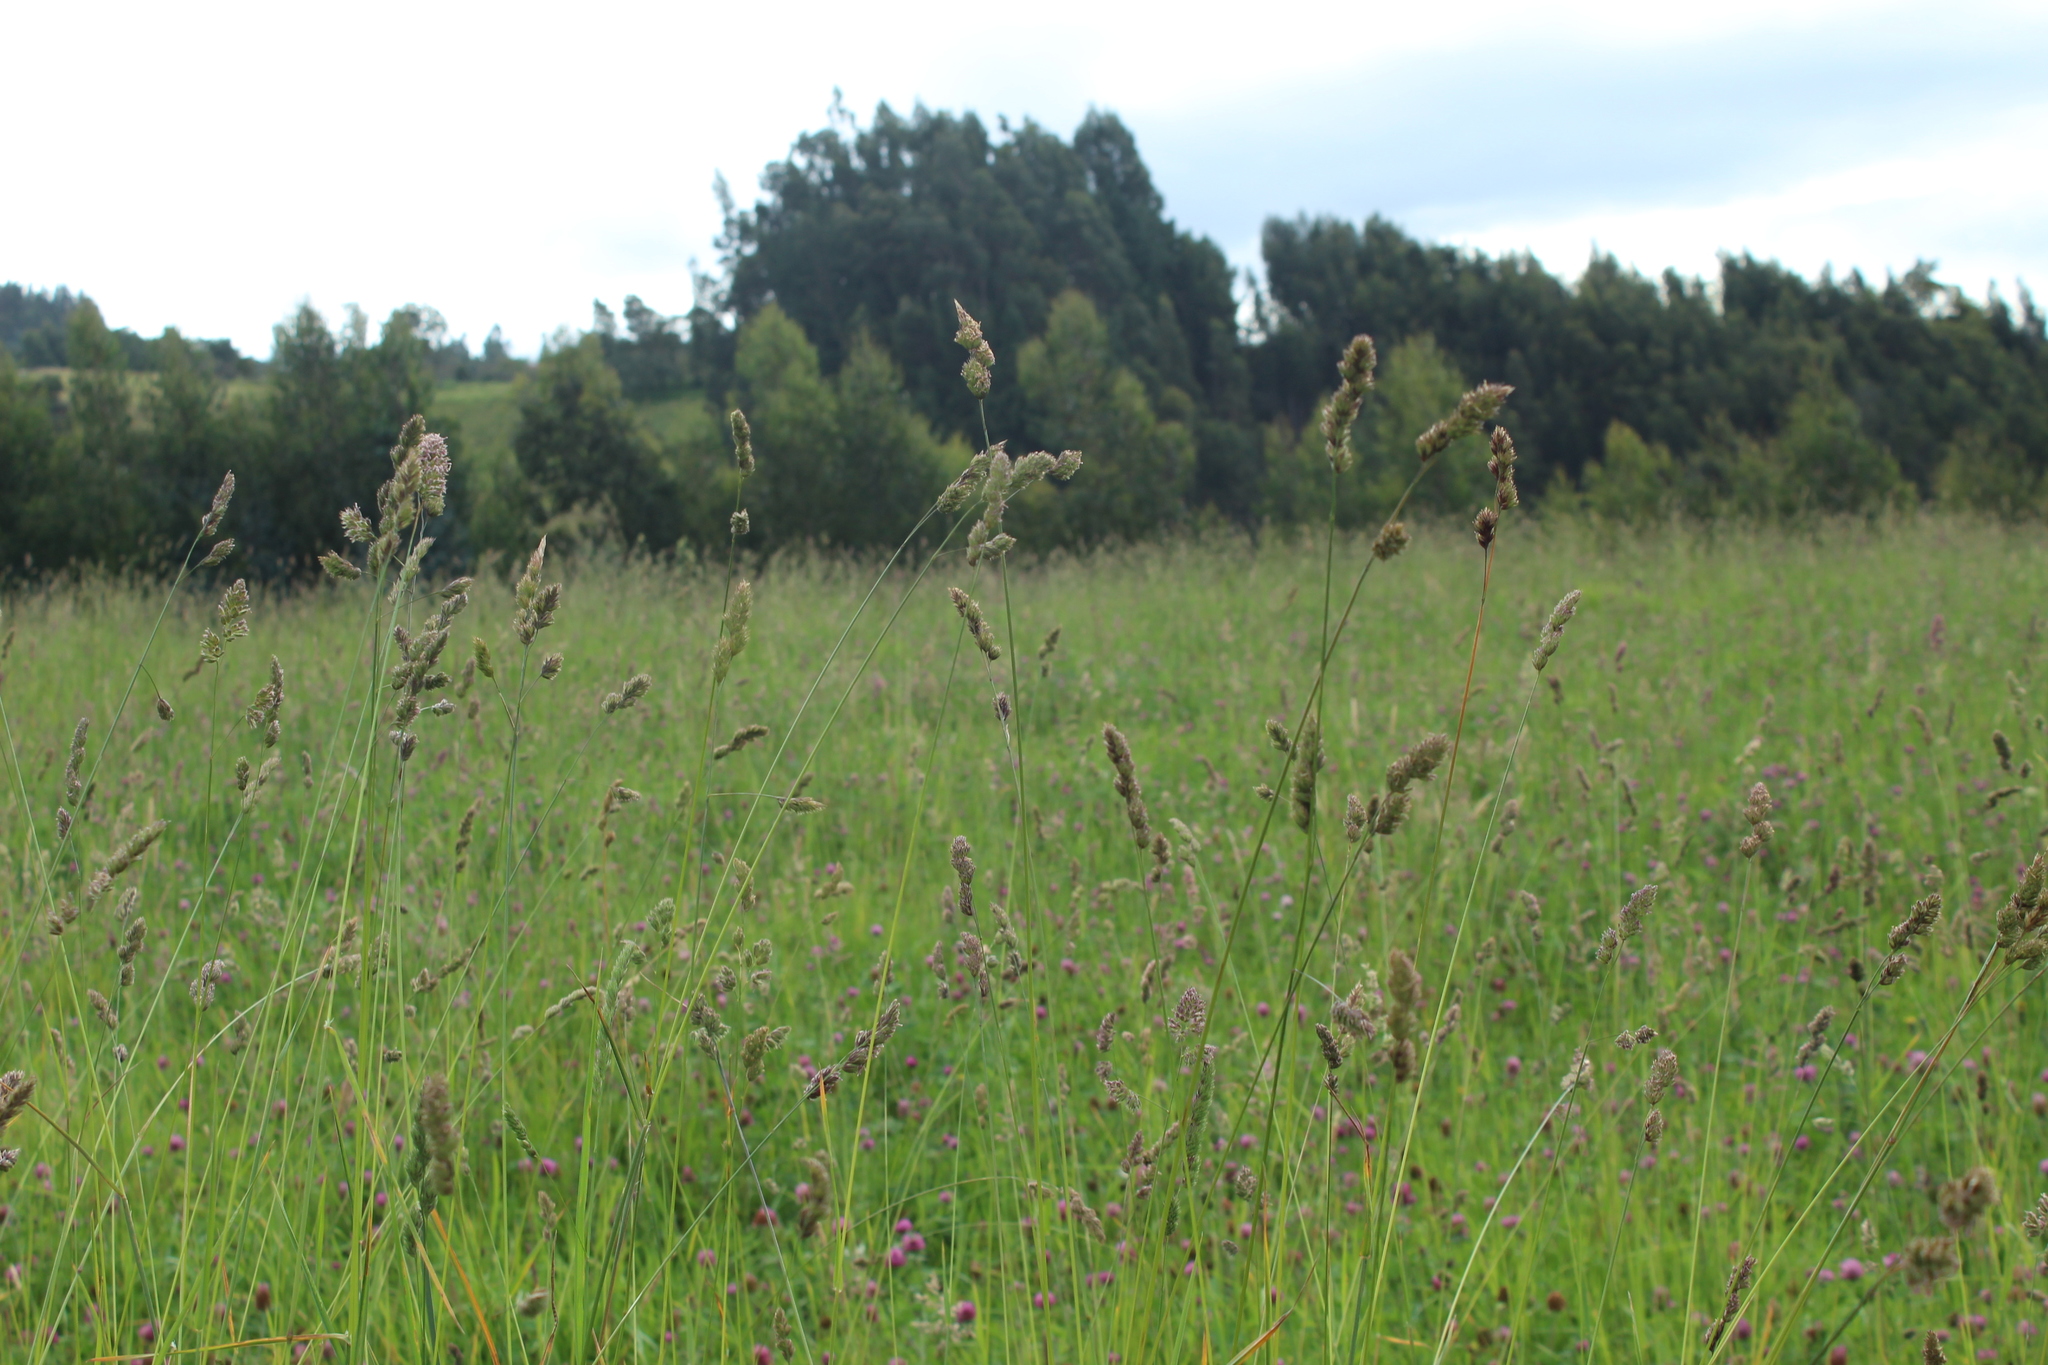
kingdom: Plantae
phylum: Tracheophyta
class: Liliopsida
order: Poales
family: Poaceae
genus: Dactylis
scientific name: Dactylis glomerata
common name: Orchardgrass
